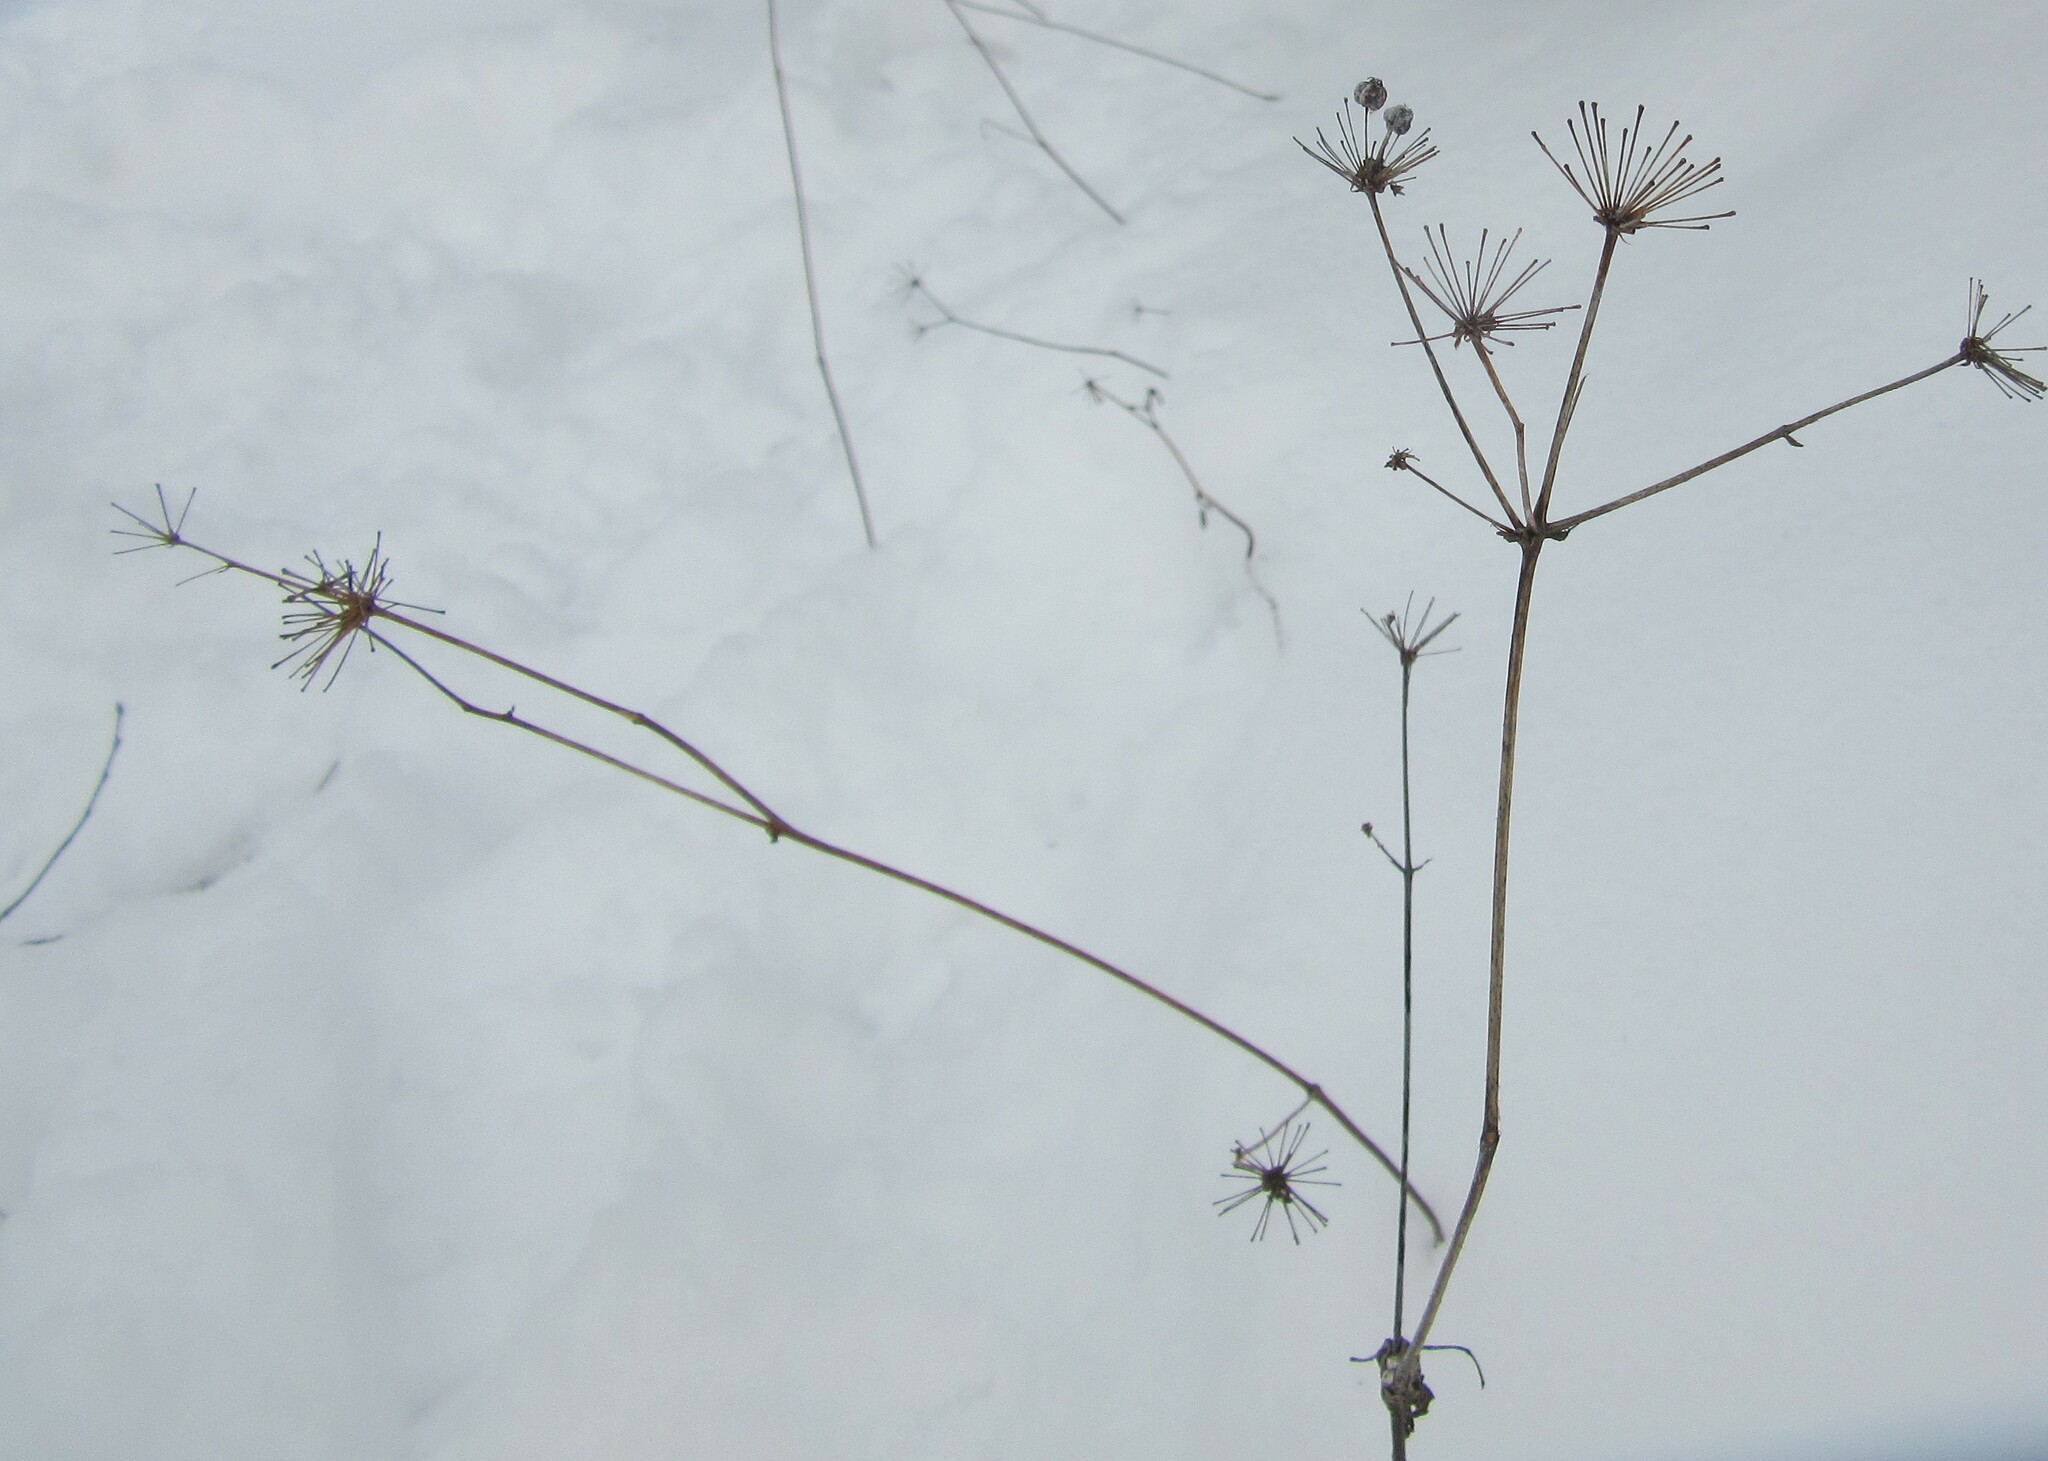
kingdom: Plantae
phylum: Tracheophyta
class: Magnoliopsida
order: Apiales
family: Araliaceae
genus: Aralia
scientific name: Aralia hispida
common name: Bristly sarsaparilla
